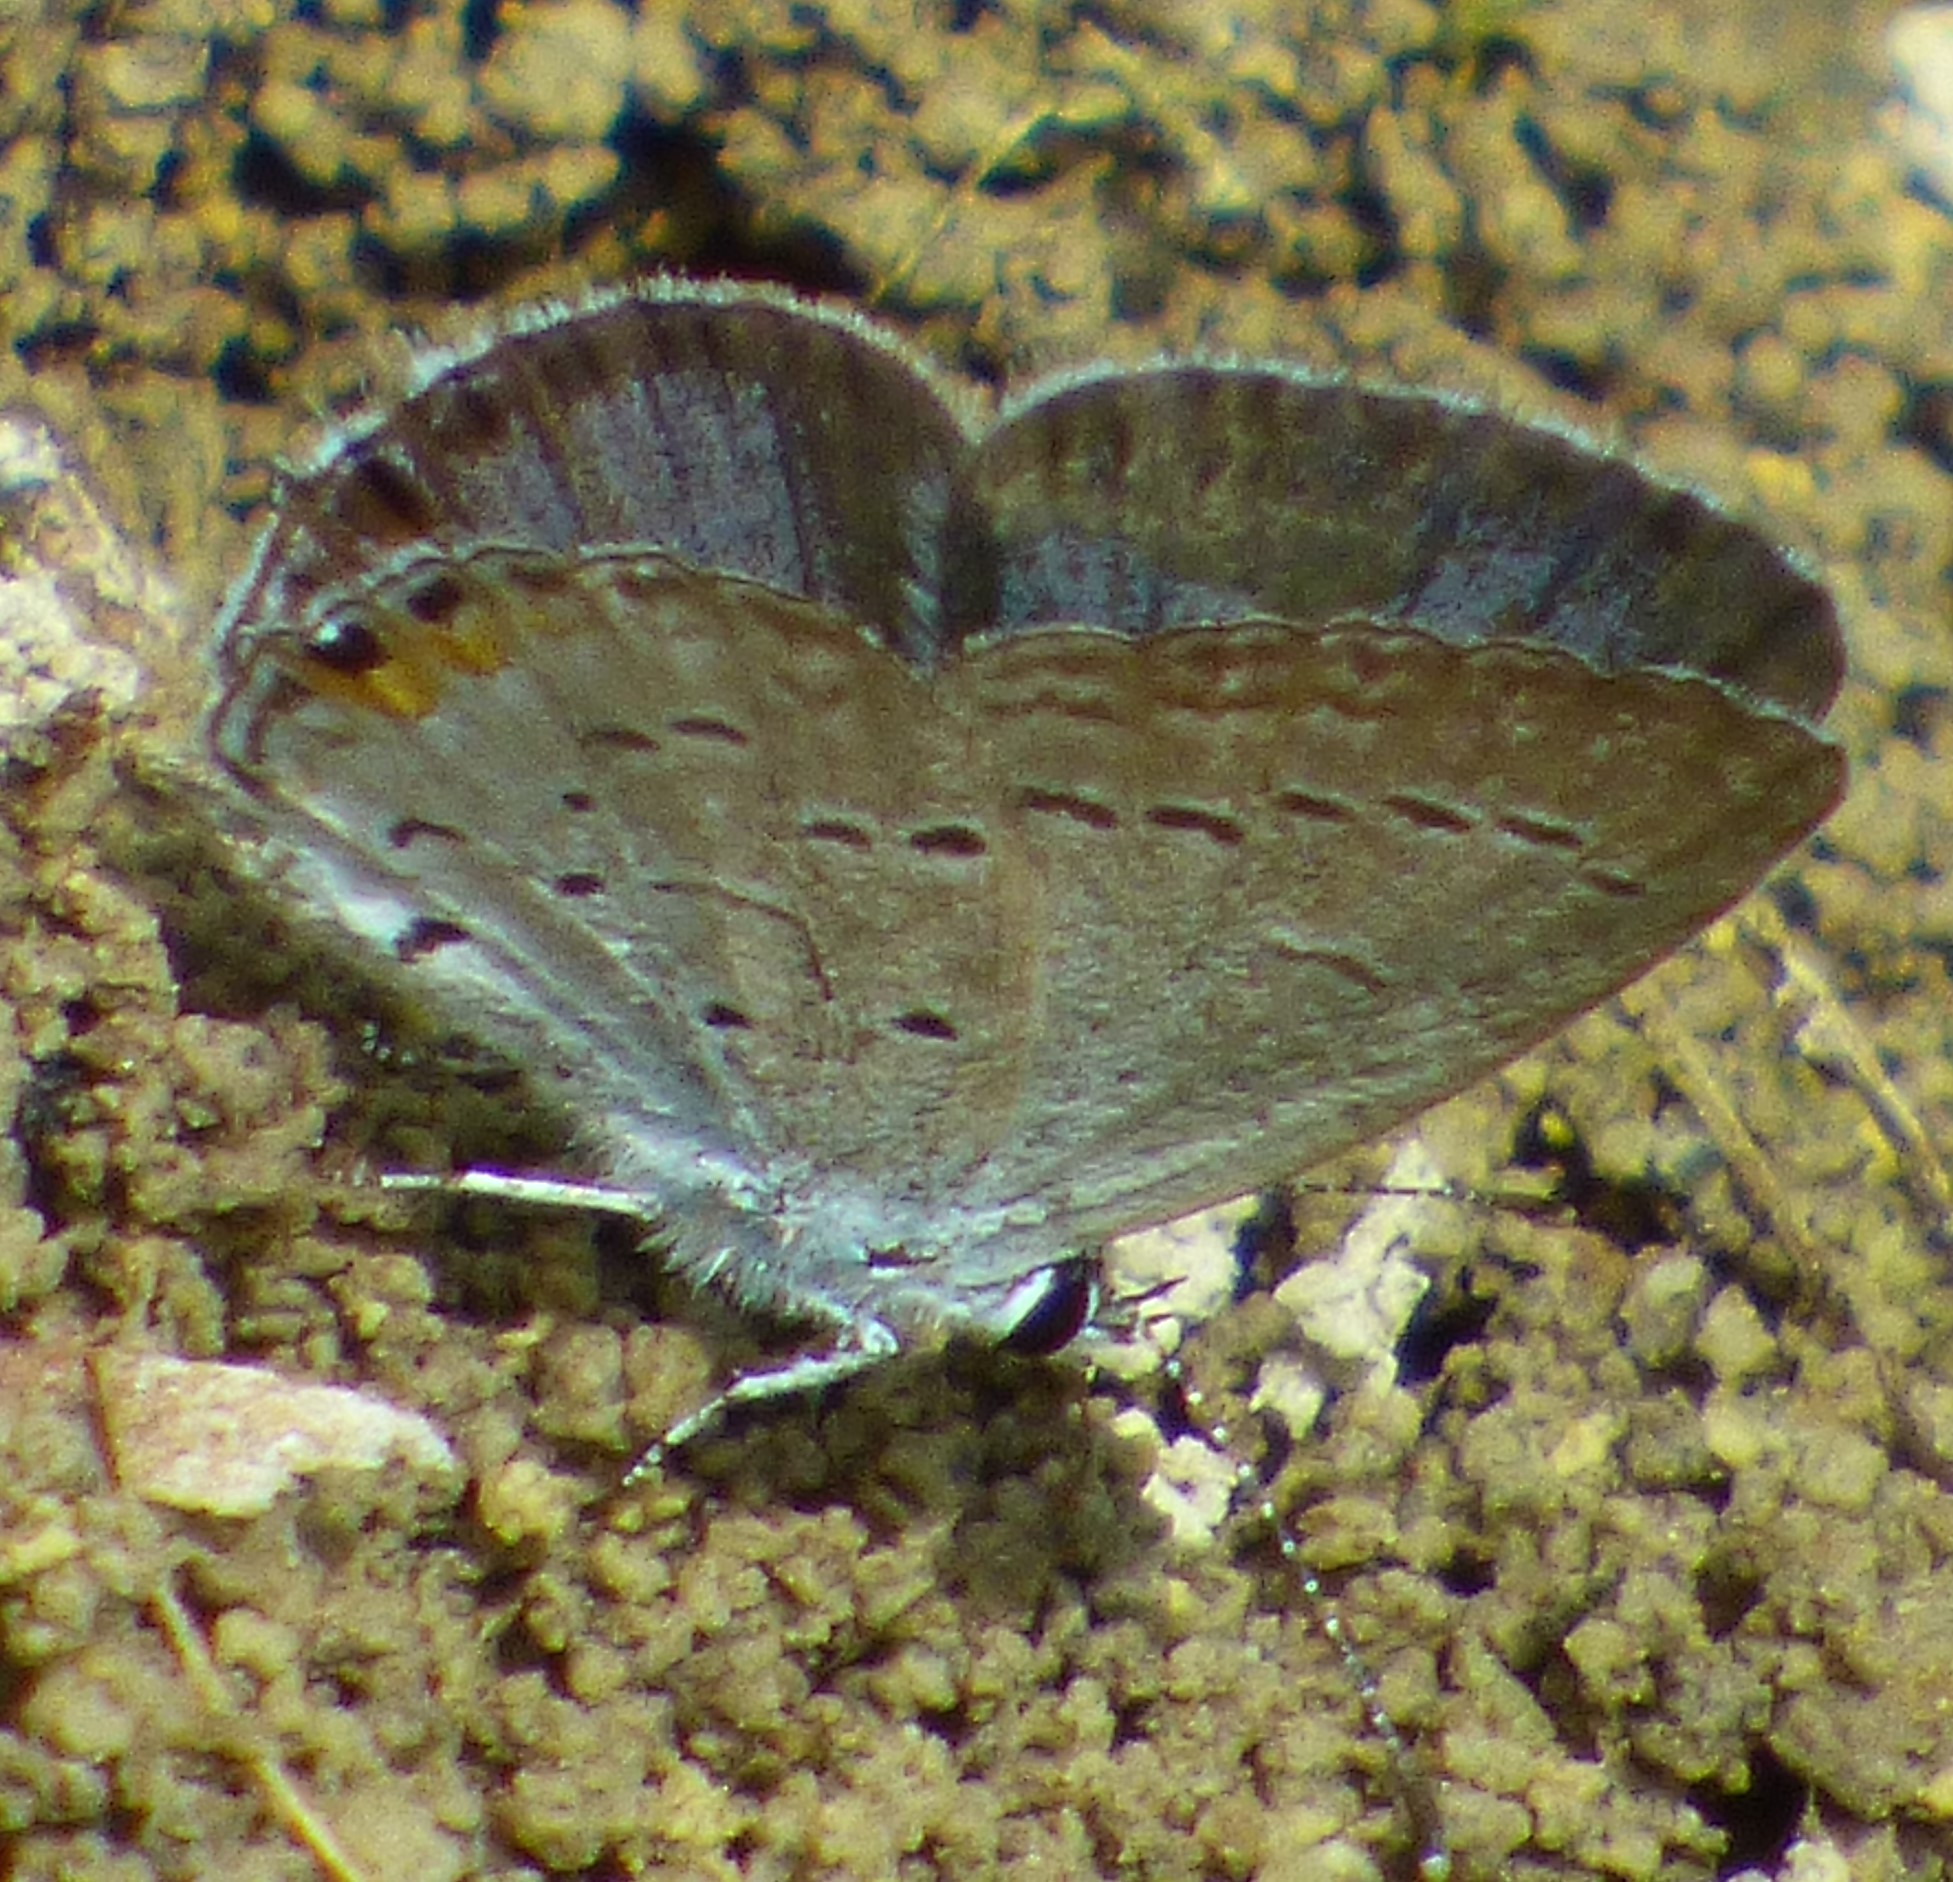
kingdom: Animalia
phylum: Arthropoda
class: Insecta
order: Lepidoptera
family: Lycaenidae
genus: Elkalyce
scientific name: Elkalyce comyntas
